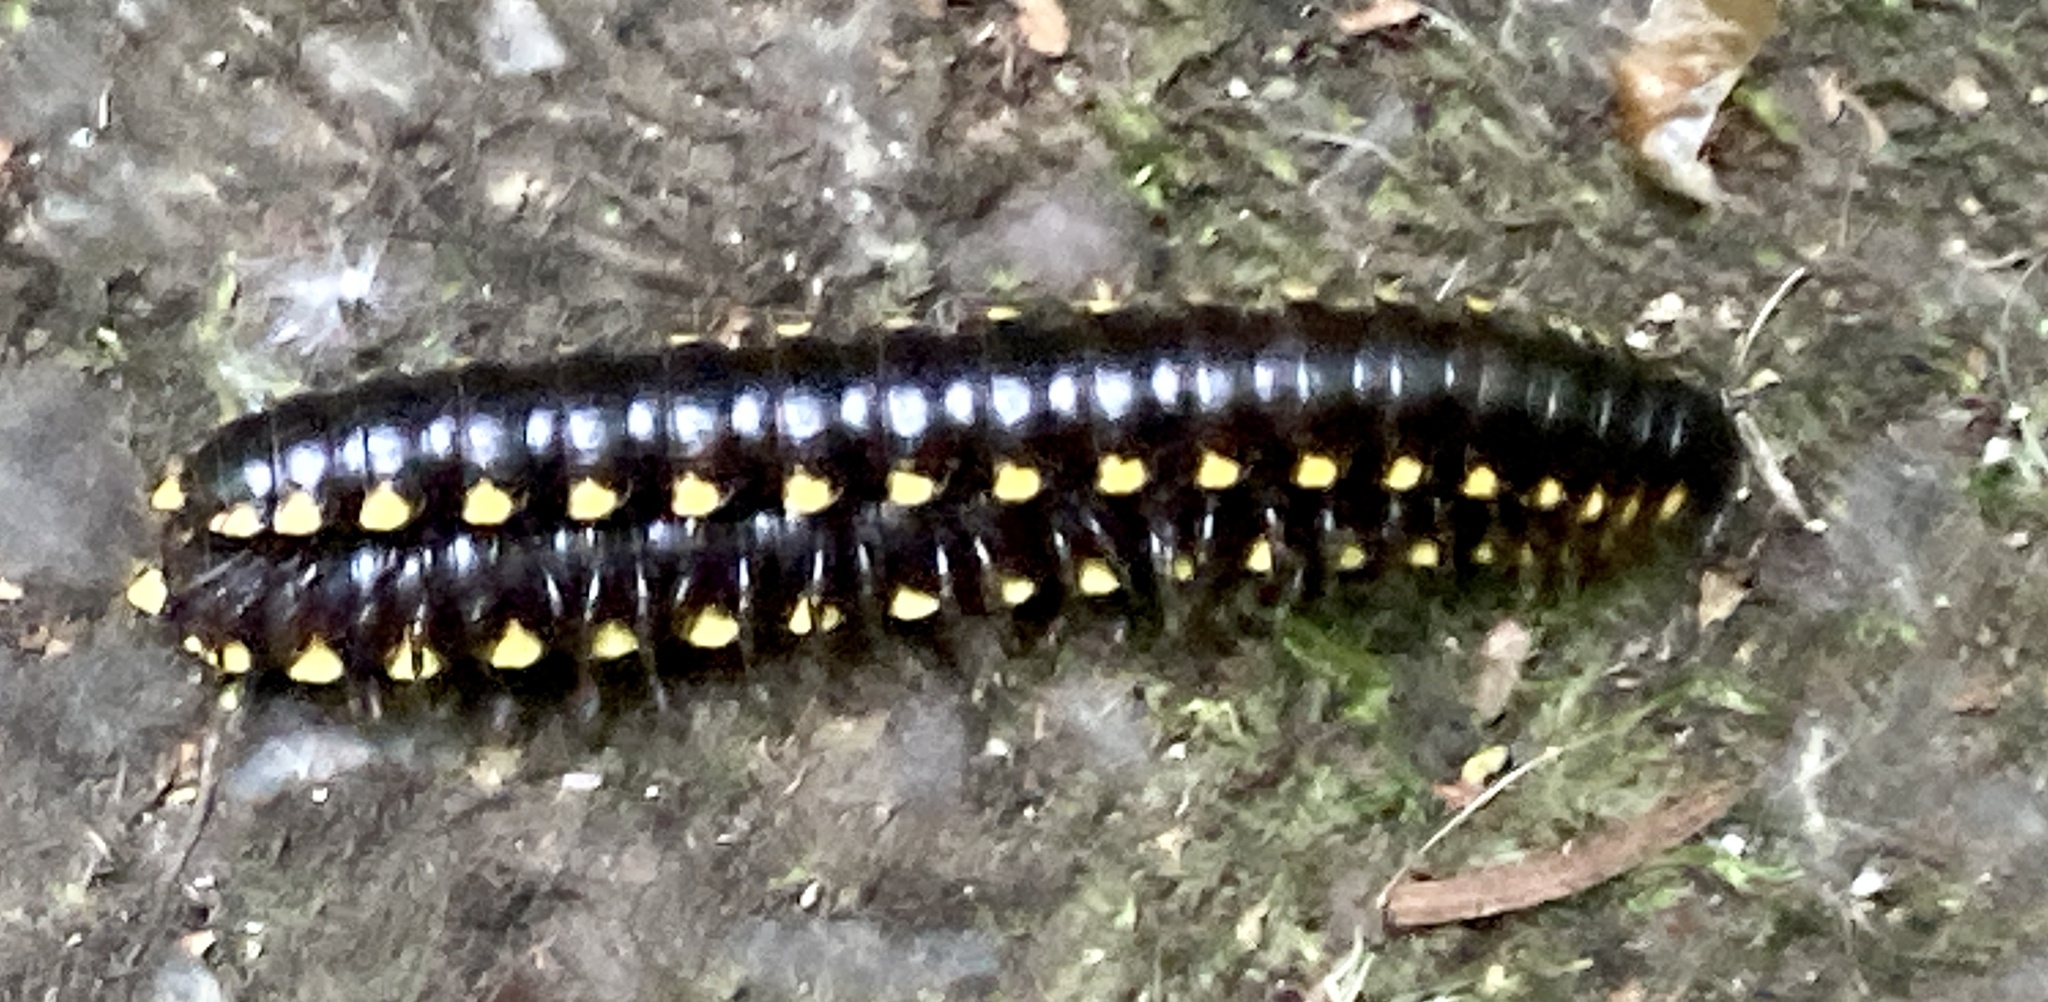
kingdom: Animalia
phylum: Arthropoda
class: Diplopoda
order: Polydesmida
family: Xystodesmidae
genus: Harpaphe
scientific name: Harpaphe haydeniana
